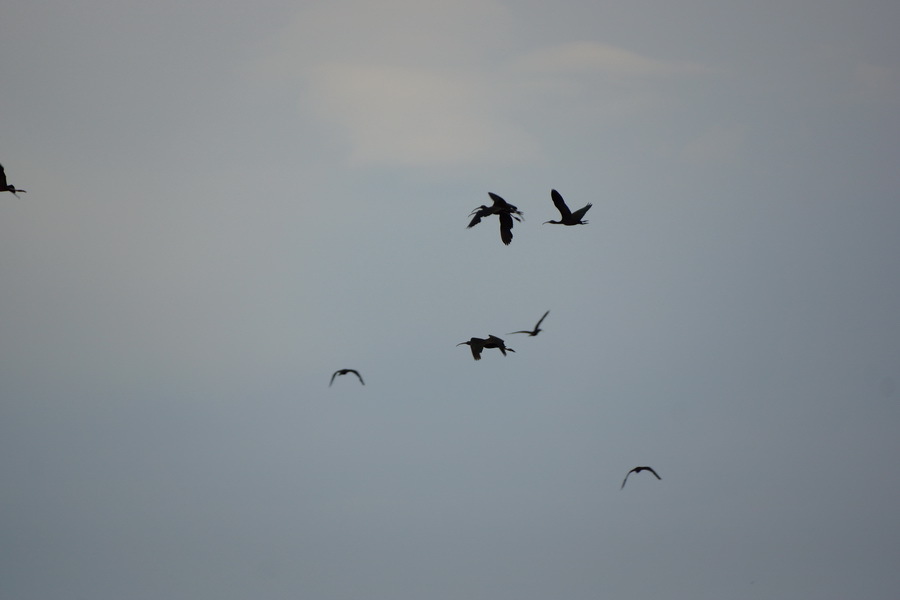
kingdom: Animalia
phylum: Chordata
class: Aves
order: Pelecaniformes
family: Threskiornithidae
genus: Plegadis
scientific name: Plegadis falcinellus
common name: Glossy ibis
